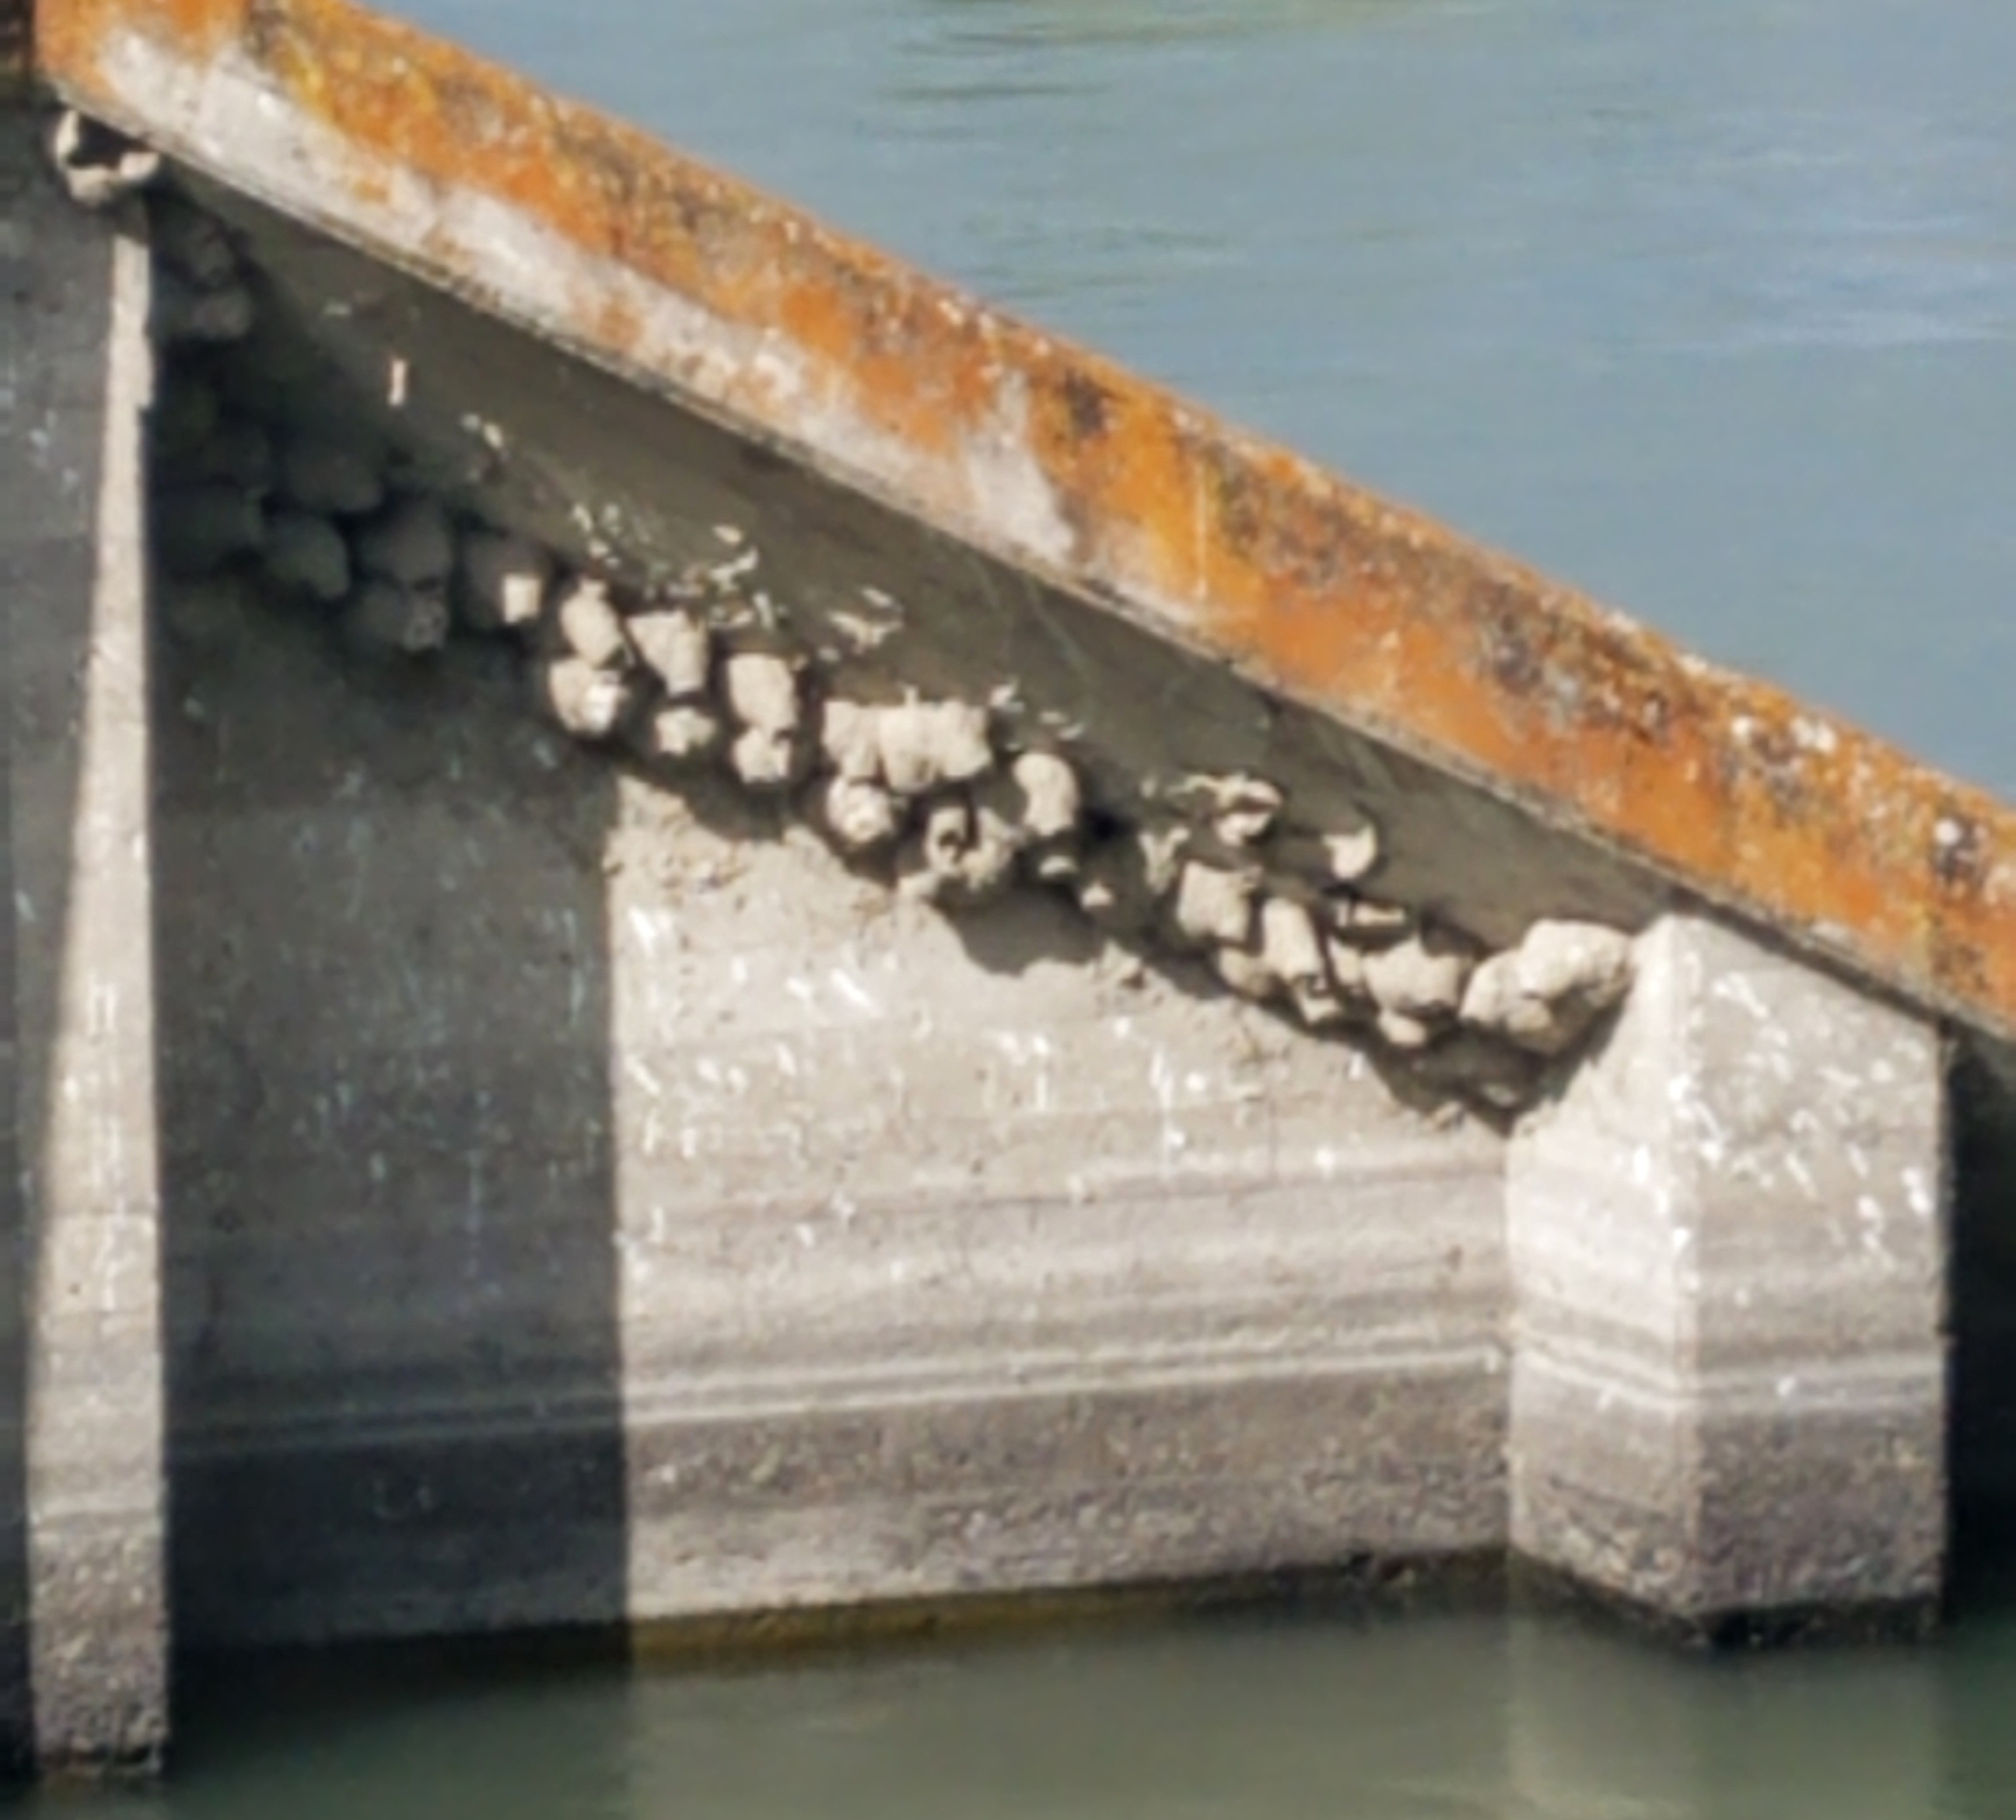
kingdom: Animalia
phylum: Chordata
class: Aves
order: Passeriformes
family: Hirundinidae
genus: Petrochelidon
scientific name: Petrochelidon pyrrhonota
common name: American cliff swallow
